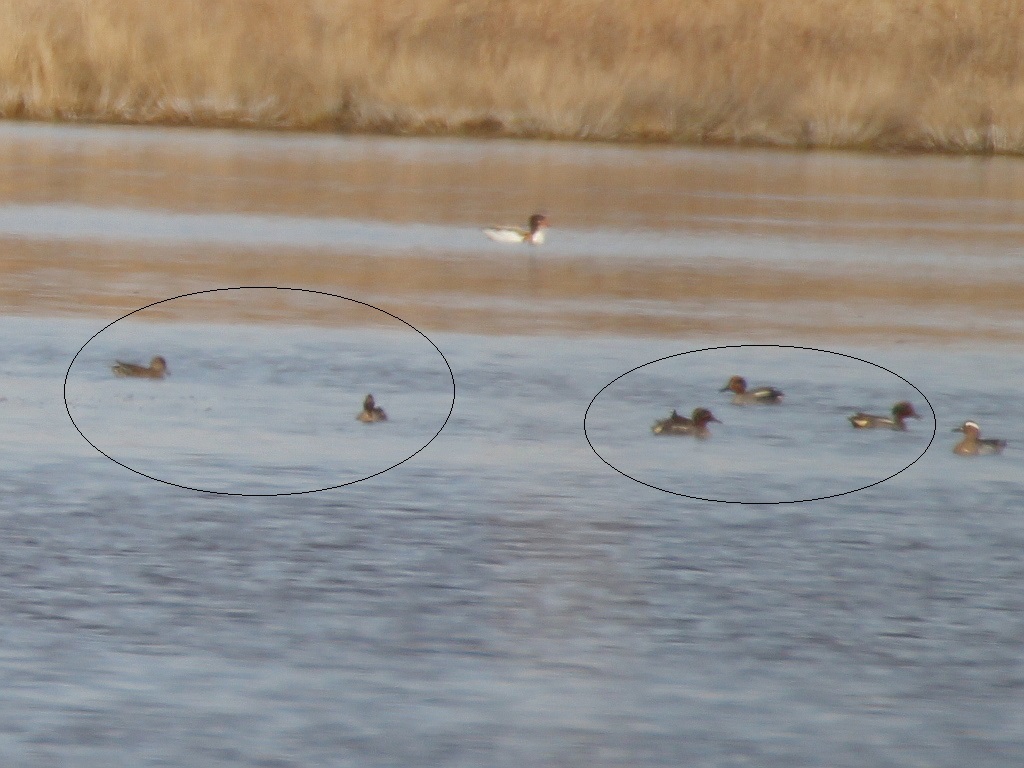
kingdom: Animalia
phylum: Chordata
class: Aves
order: Anseriformes
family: Anatidae
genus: Anas
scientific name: Anas crecca
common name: Eurasian teal
